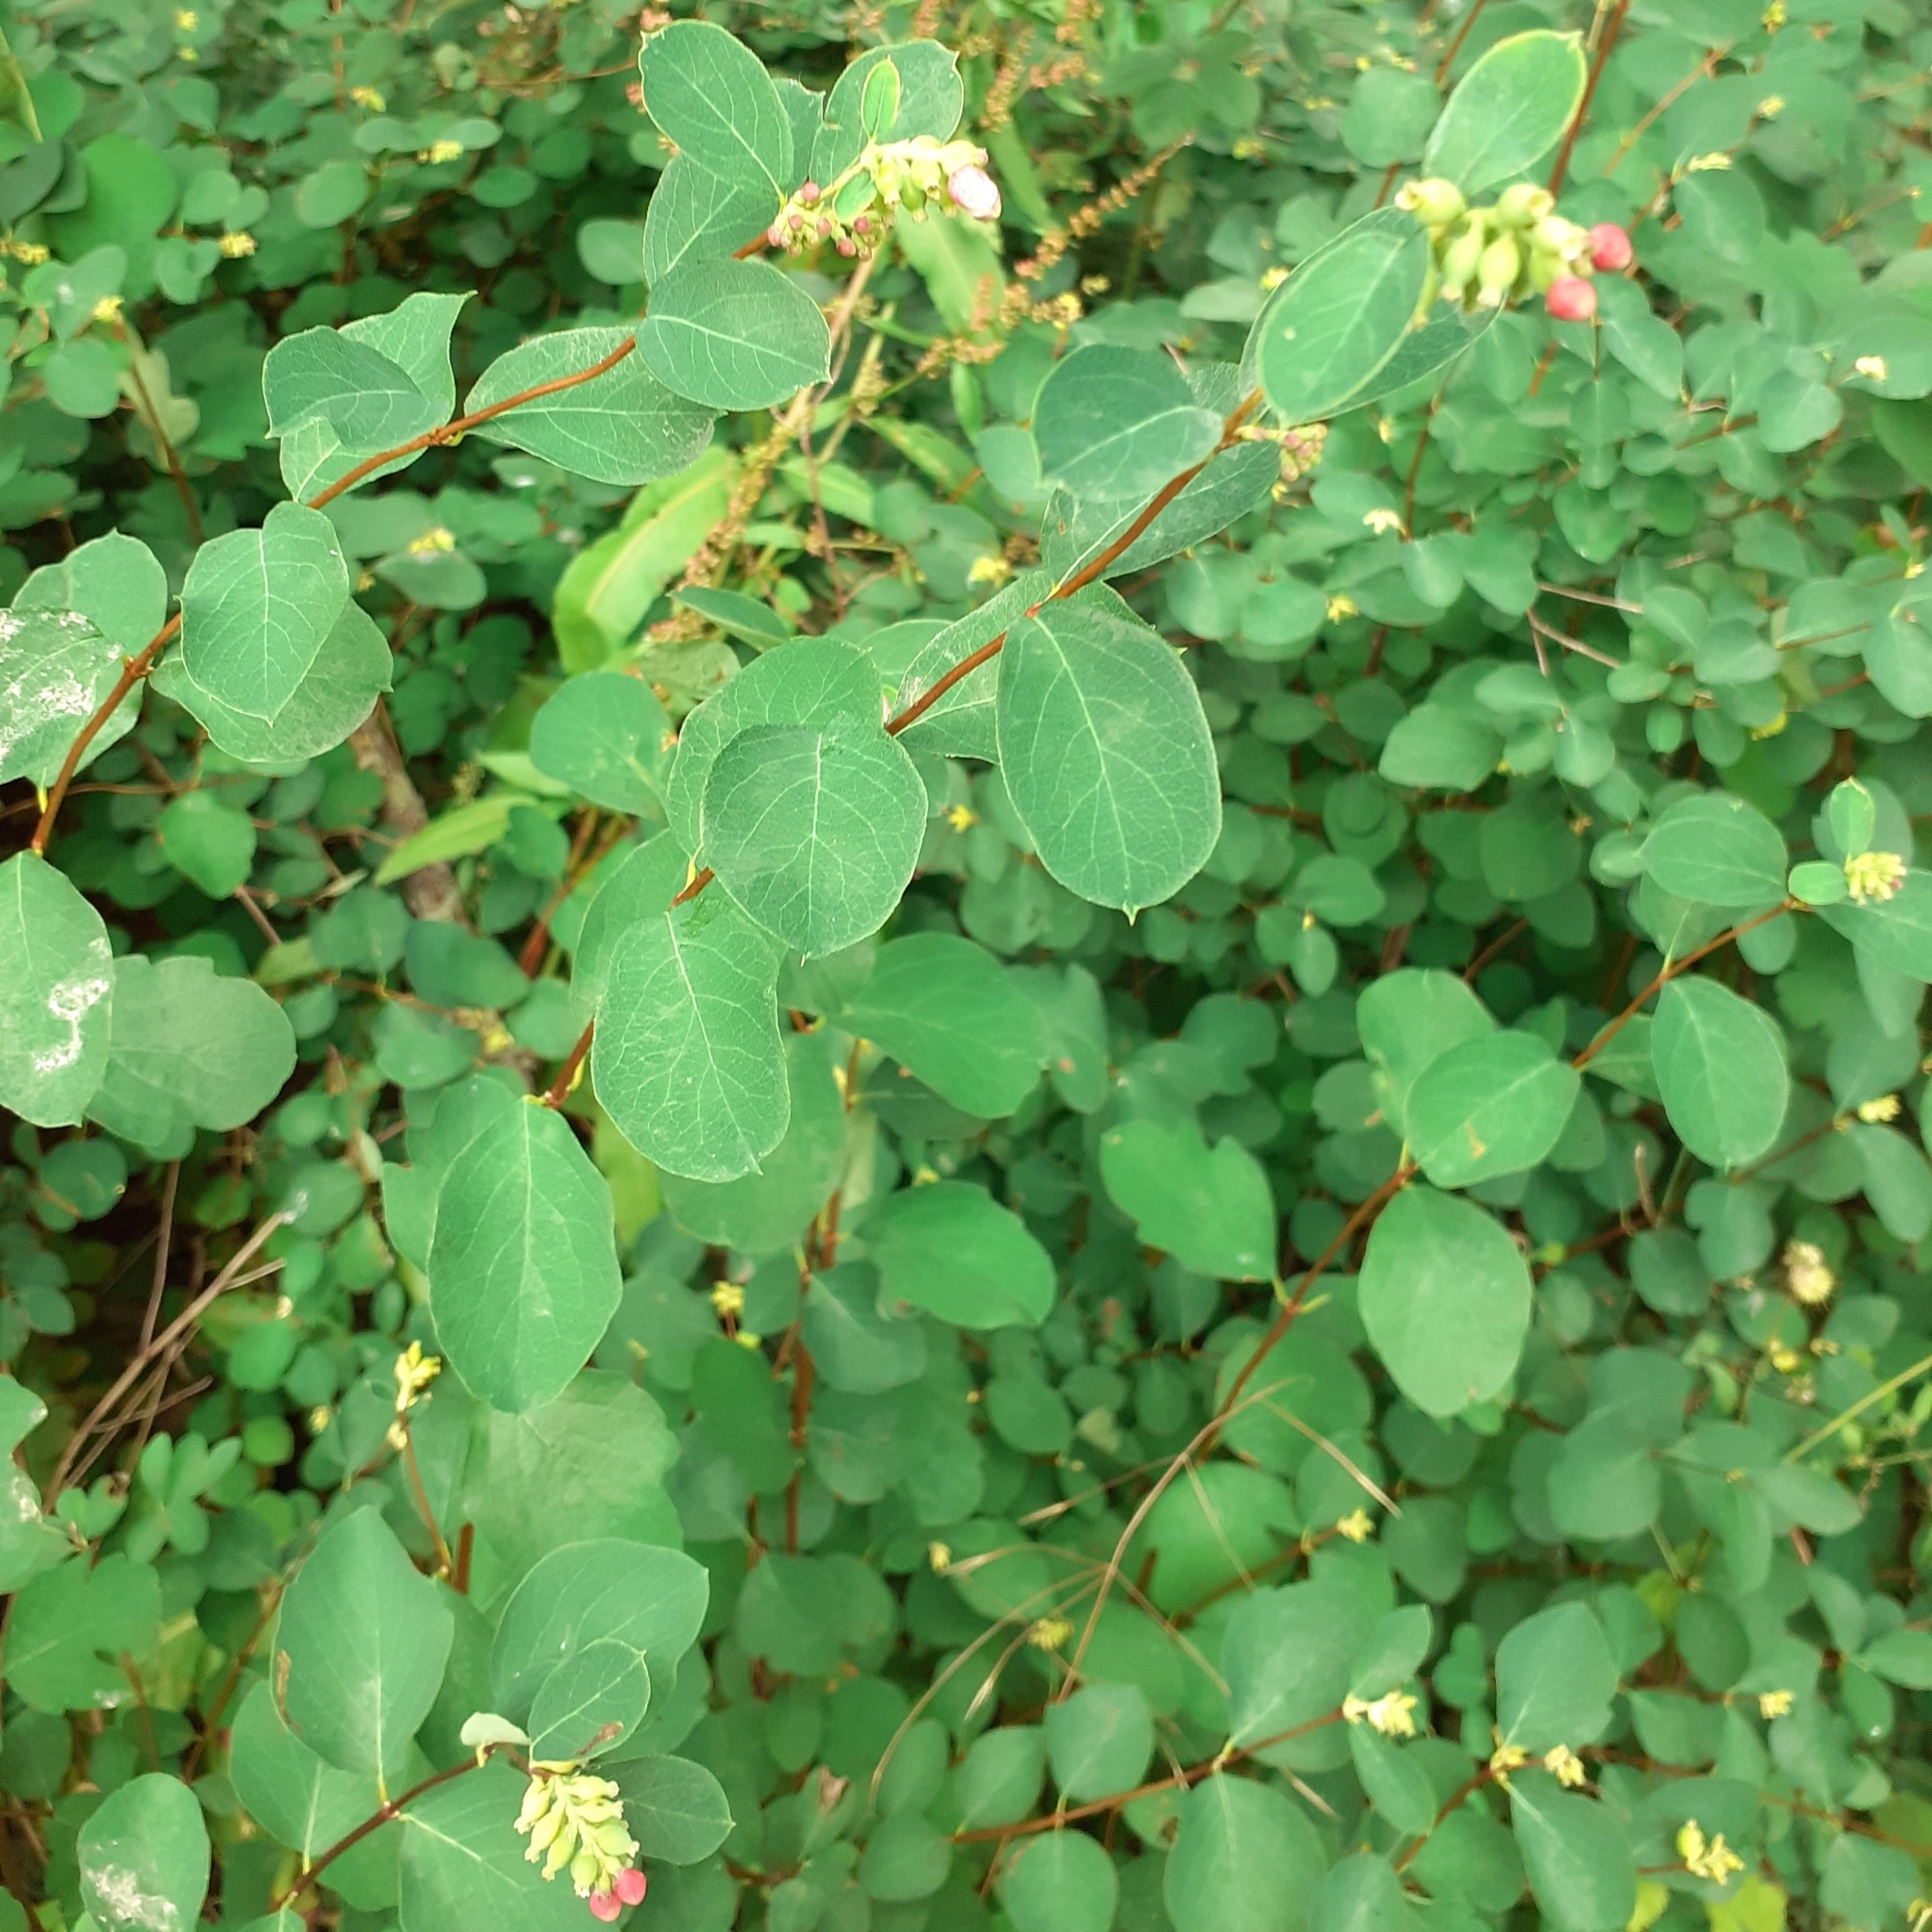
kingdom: Plantae
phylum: Tracheophyta
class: Magnoliopsida
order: Dipsacales
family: Caprifoliaceae
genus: Symphoricarpos
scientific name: Symphoricarpos albus
